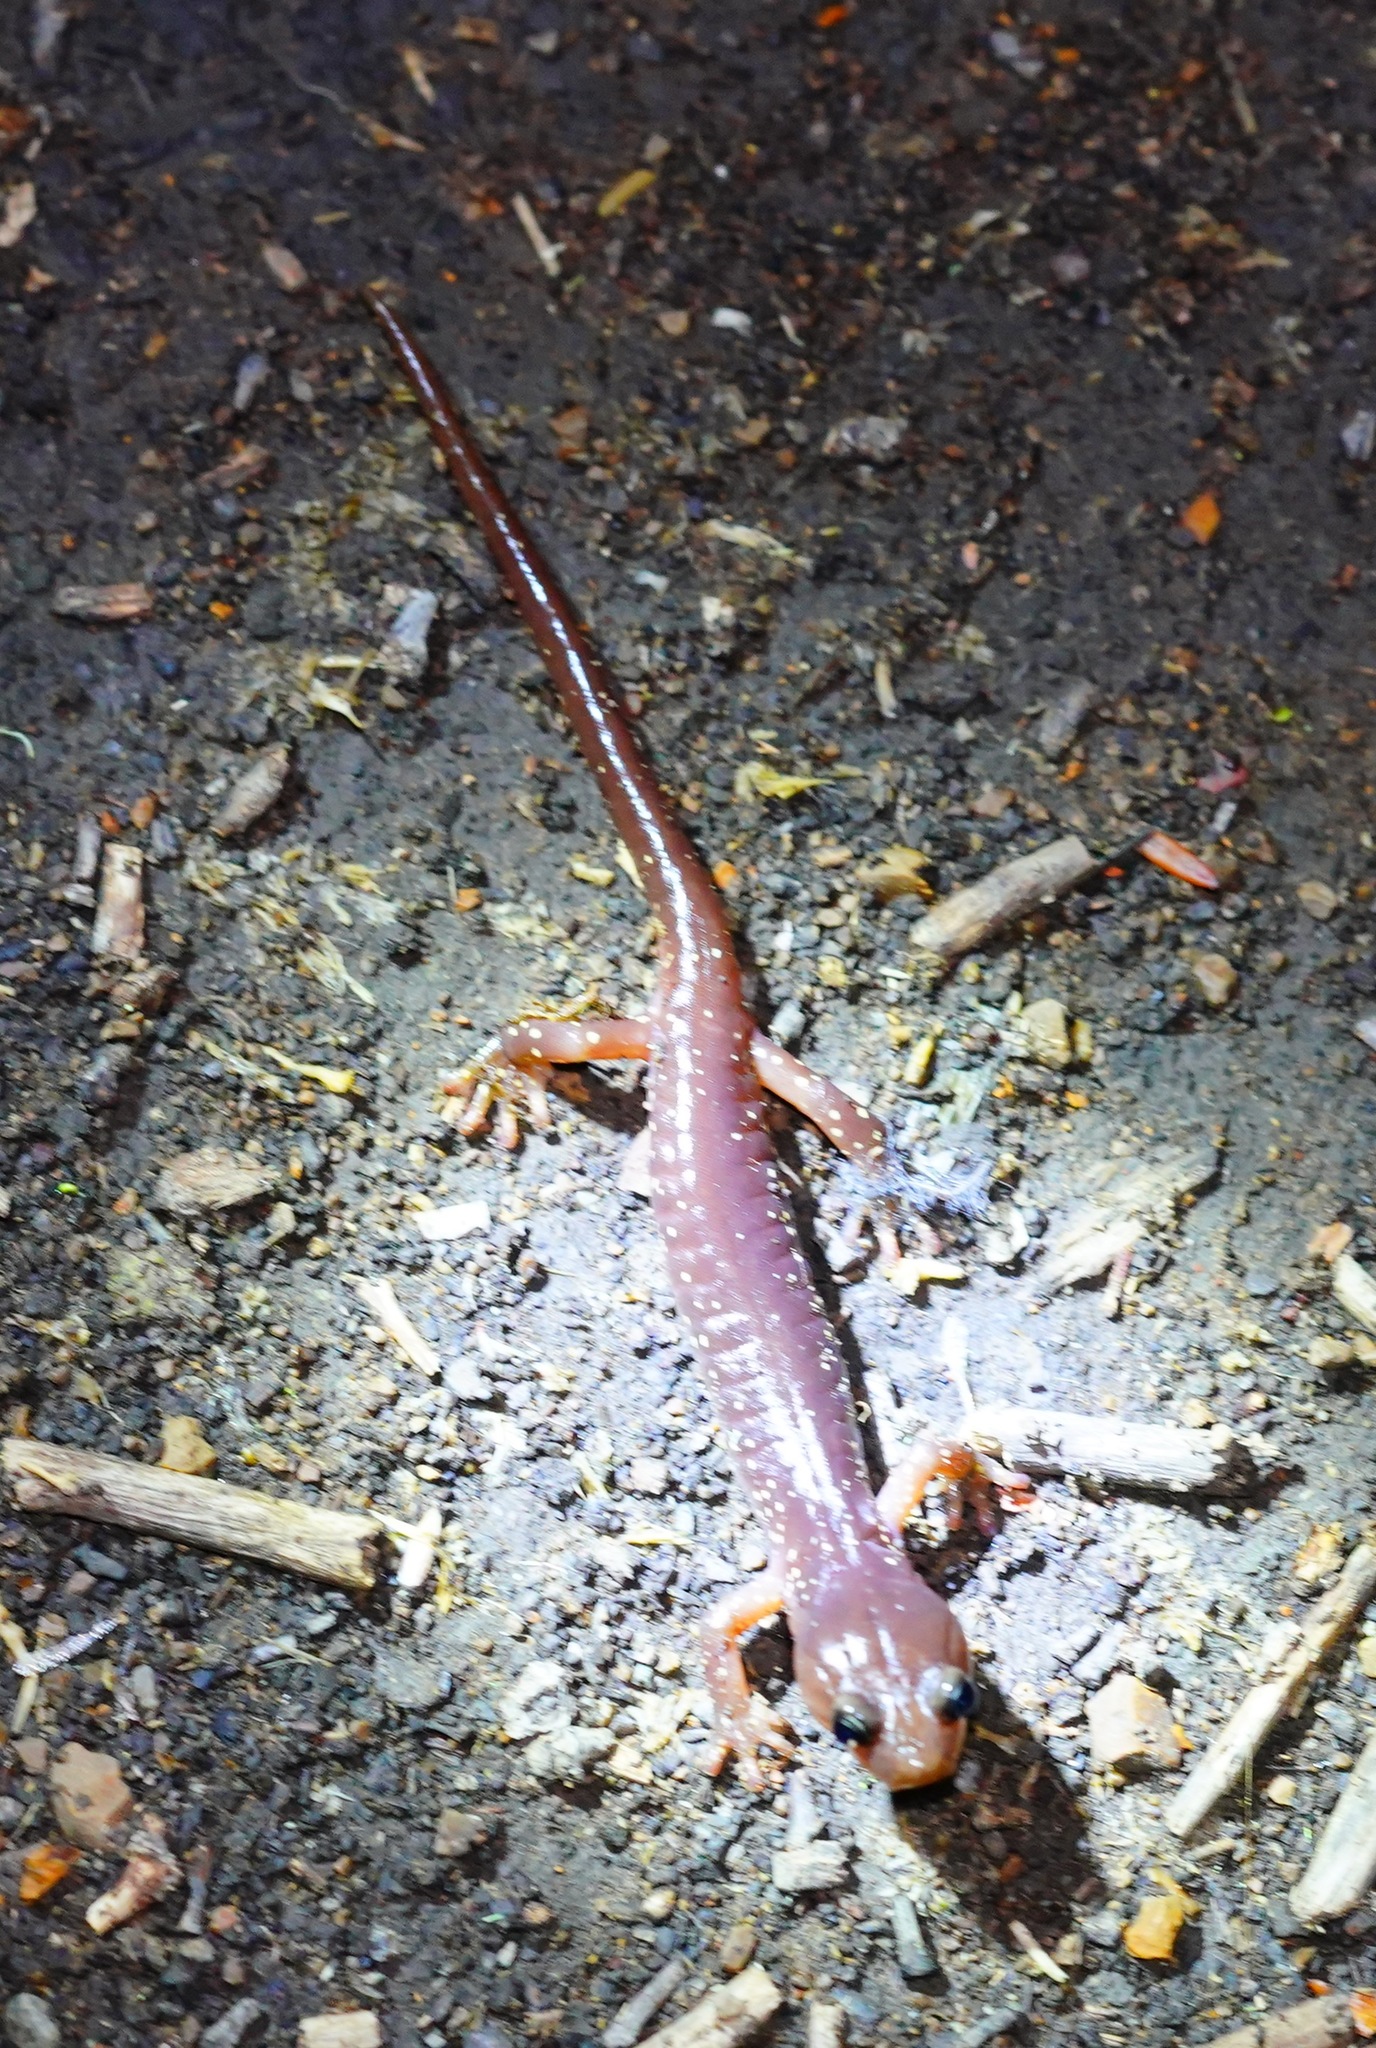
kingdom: Animalia
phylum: Chordata
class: Amphibia
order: Caudata
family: Plethodontidae
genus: Aneides
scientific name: Aneides lugubris
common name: Arboreal salamander
